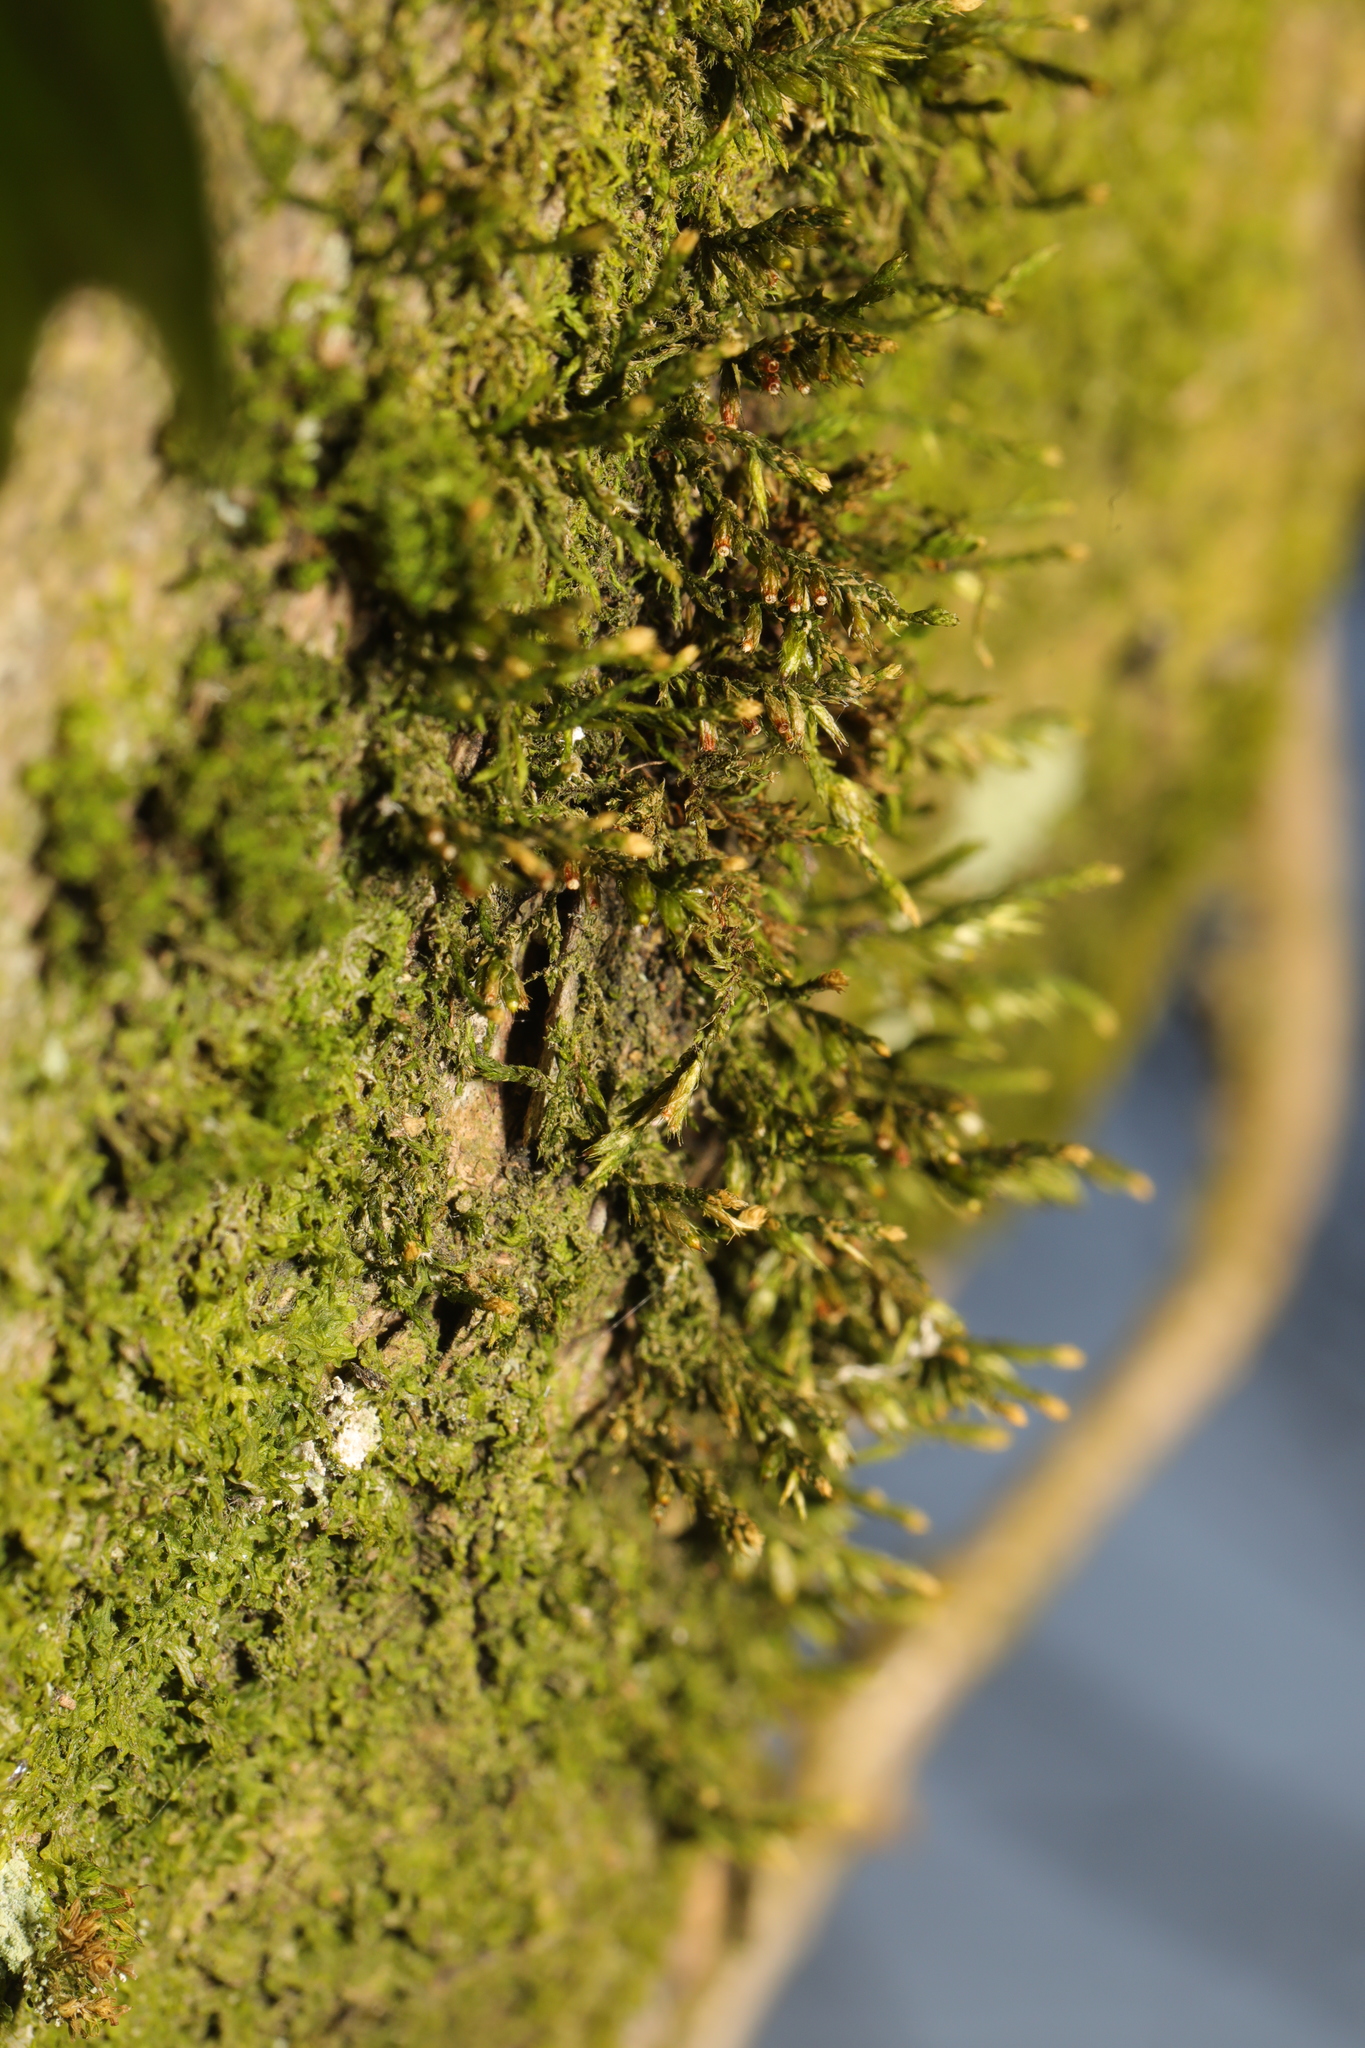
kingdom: Plantae
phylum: Bryophyta
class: Bryopsida
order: Hypnales
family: Cryphaeaceae
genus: Cryphaea
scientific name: Cryphaea heteromalla
